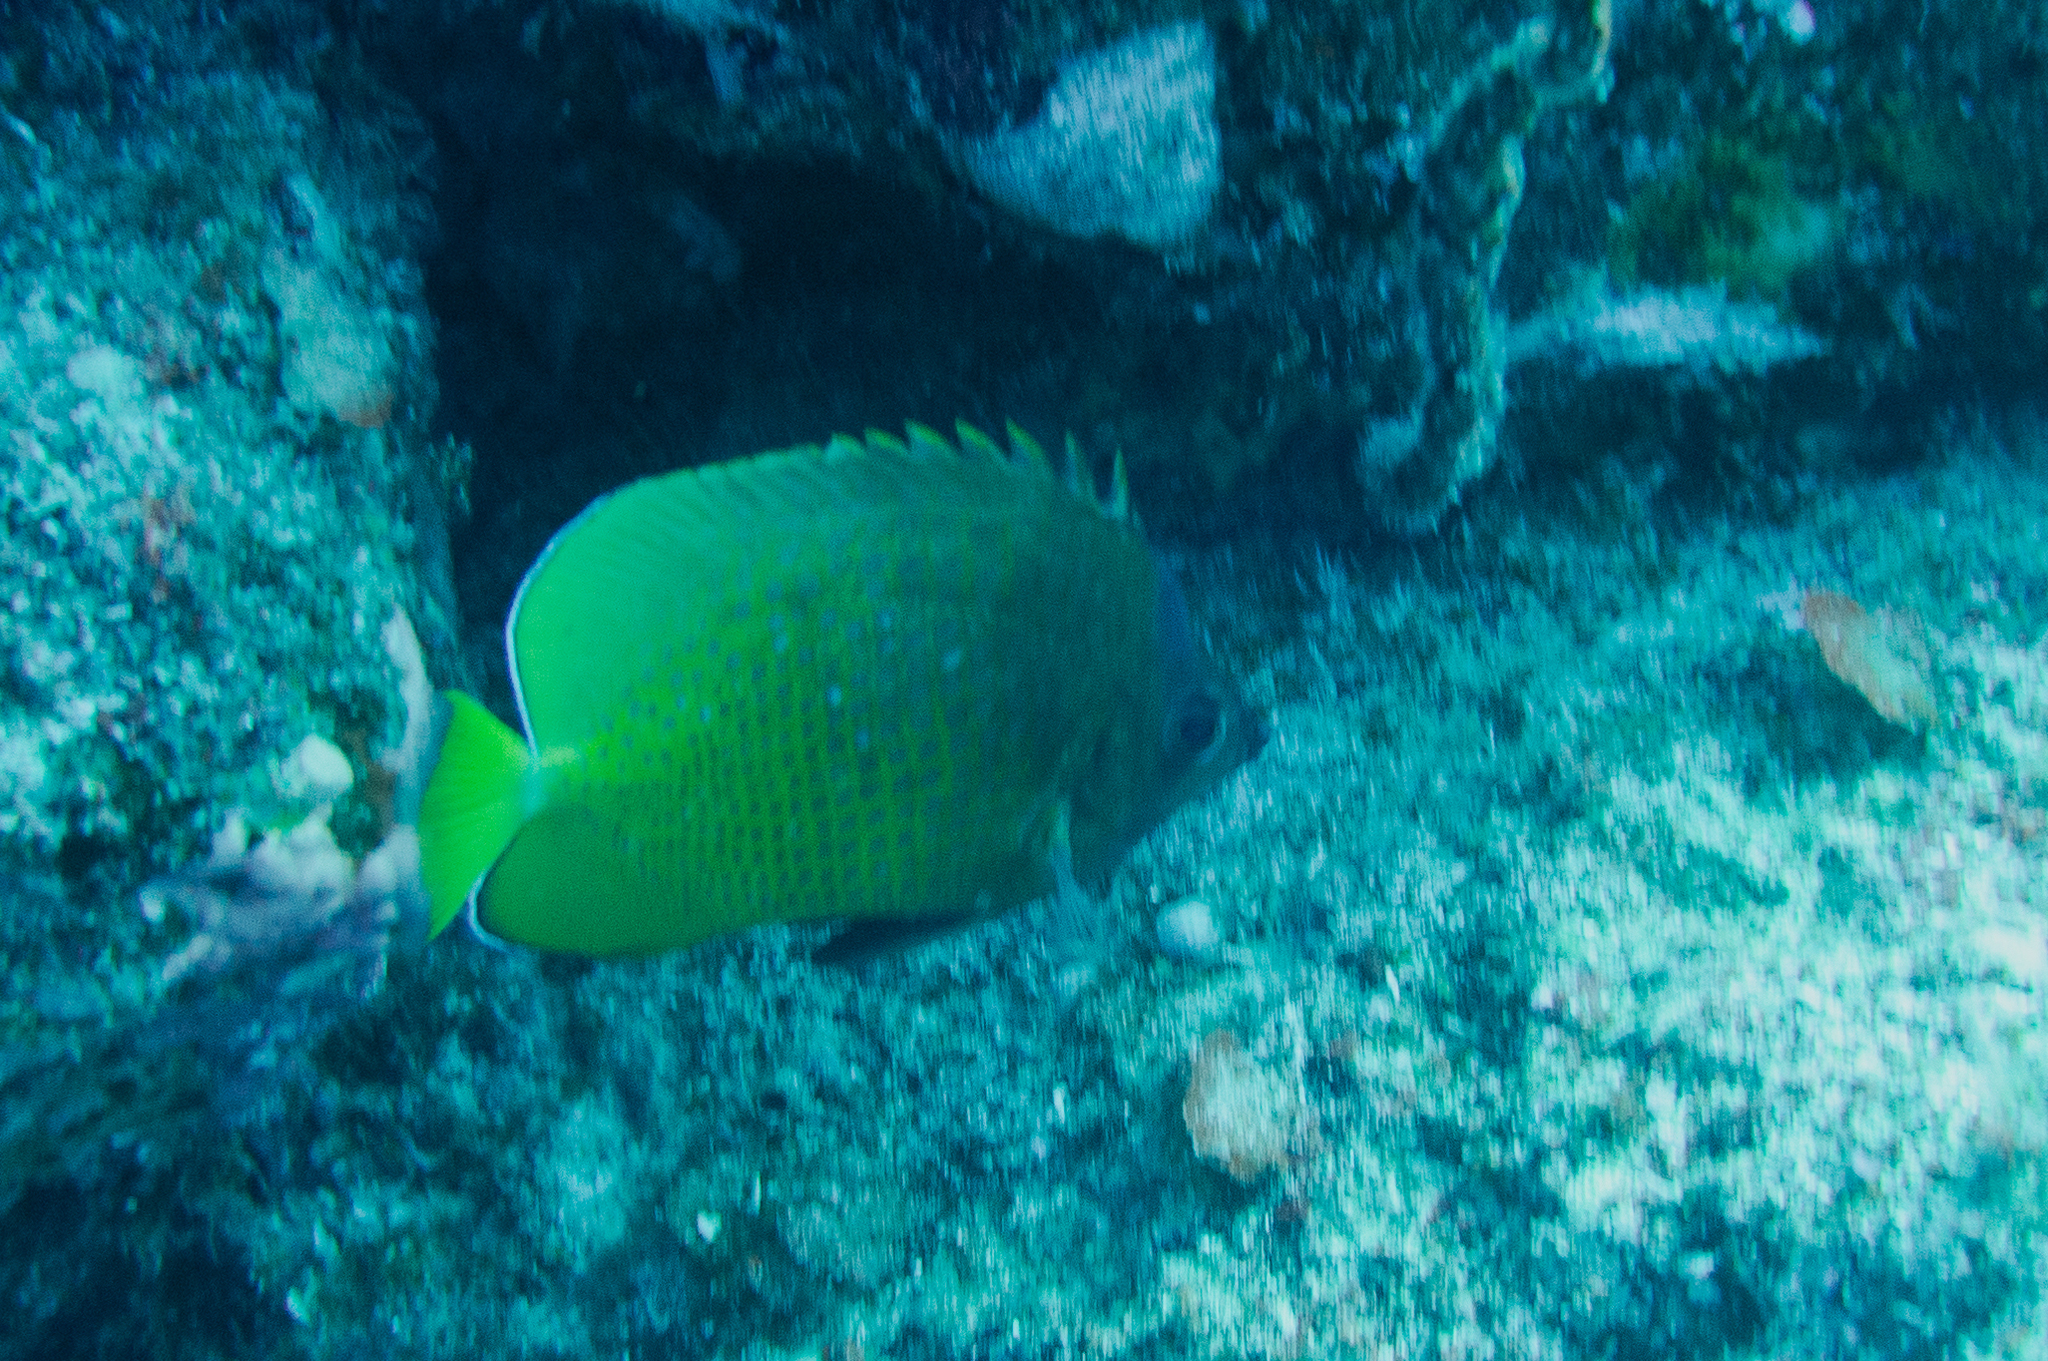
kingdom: Animalia
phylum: Chordata
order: Perciformes
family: Chaetodontidae
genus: Chaetodon
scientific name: Chaetodon kleinii
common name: Klein's butterflyfish
